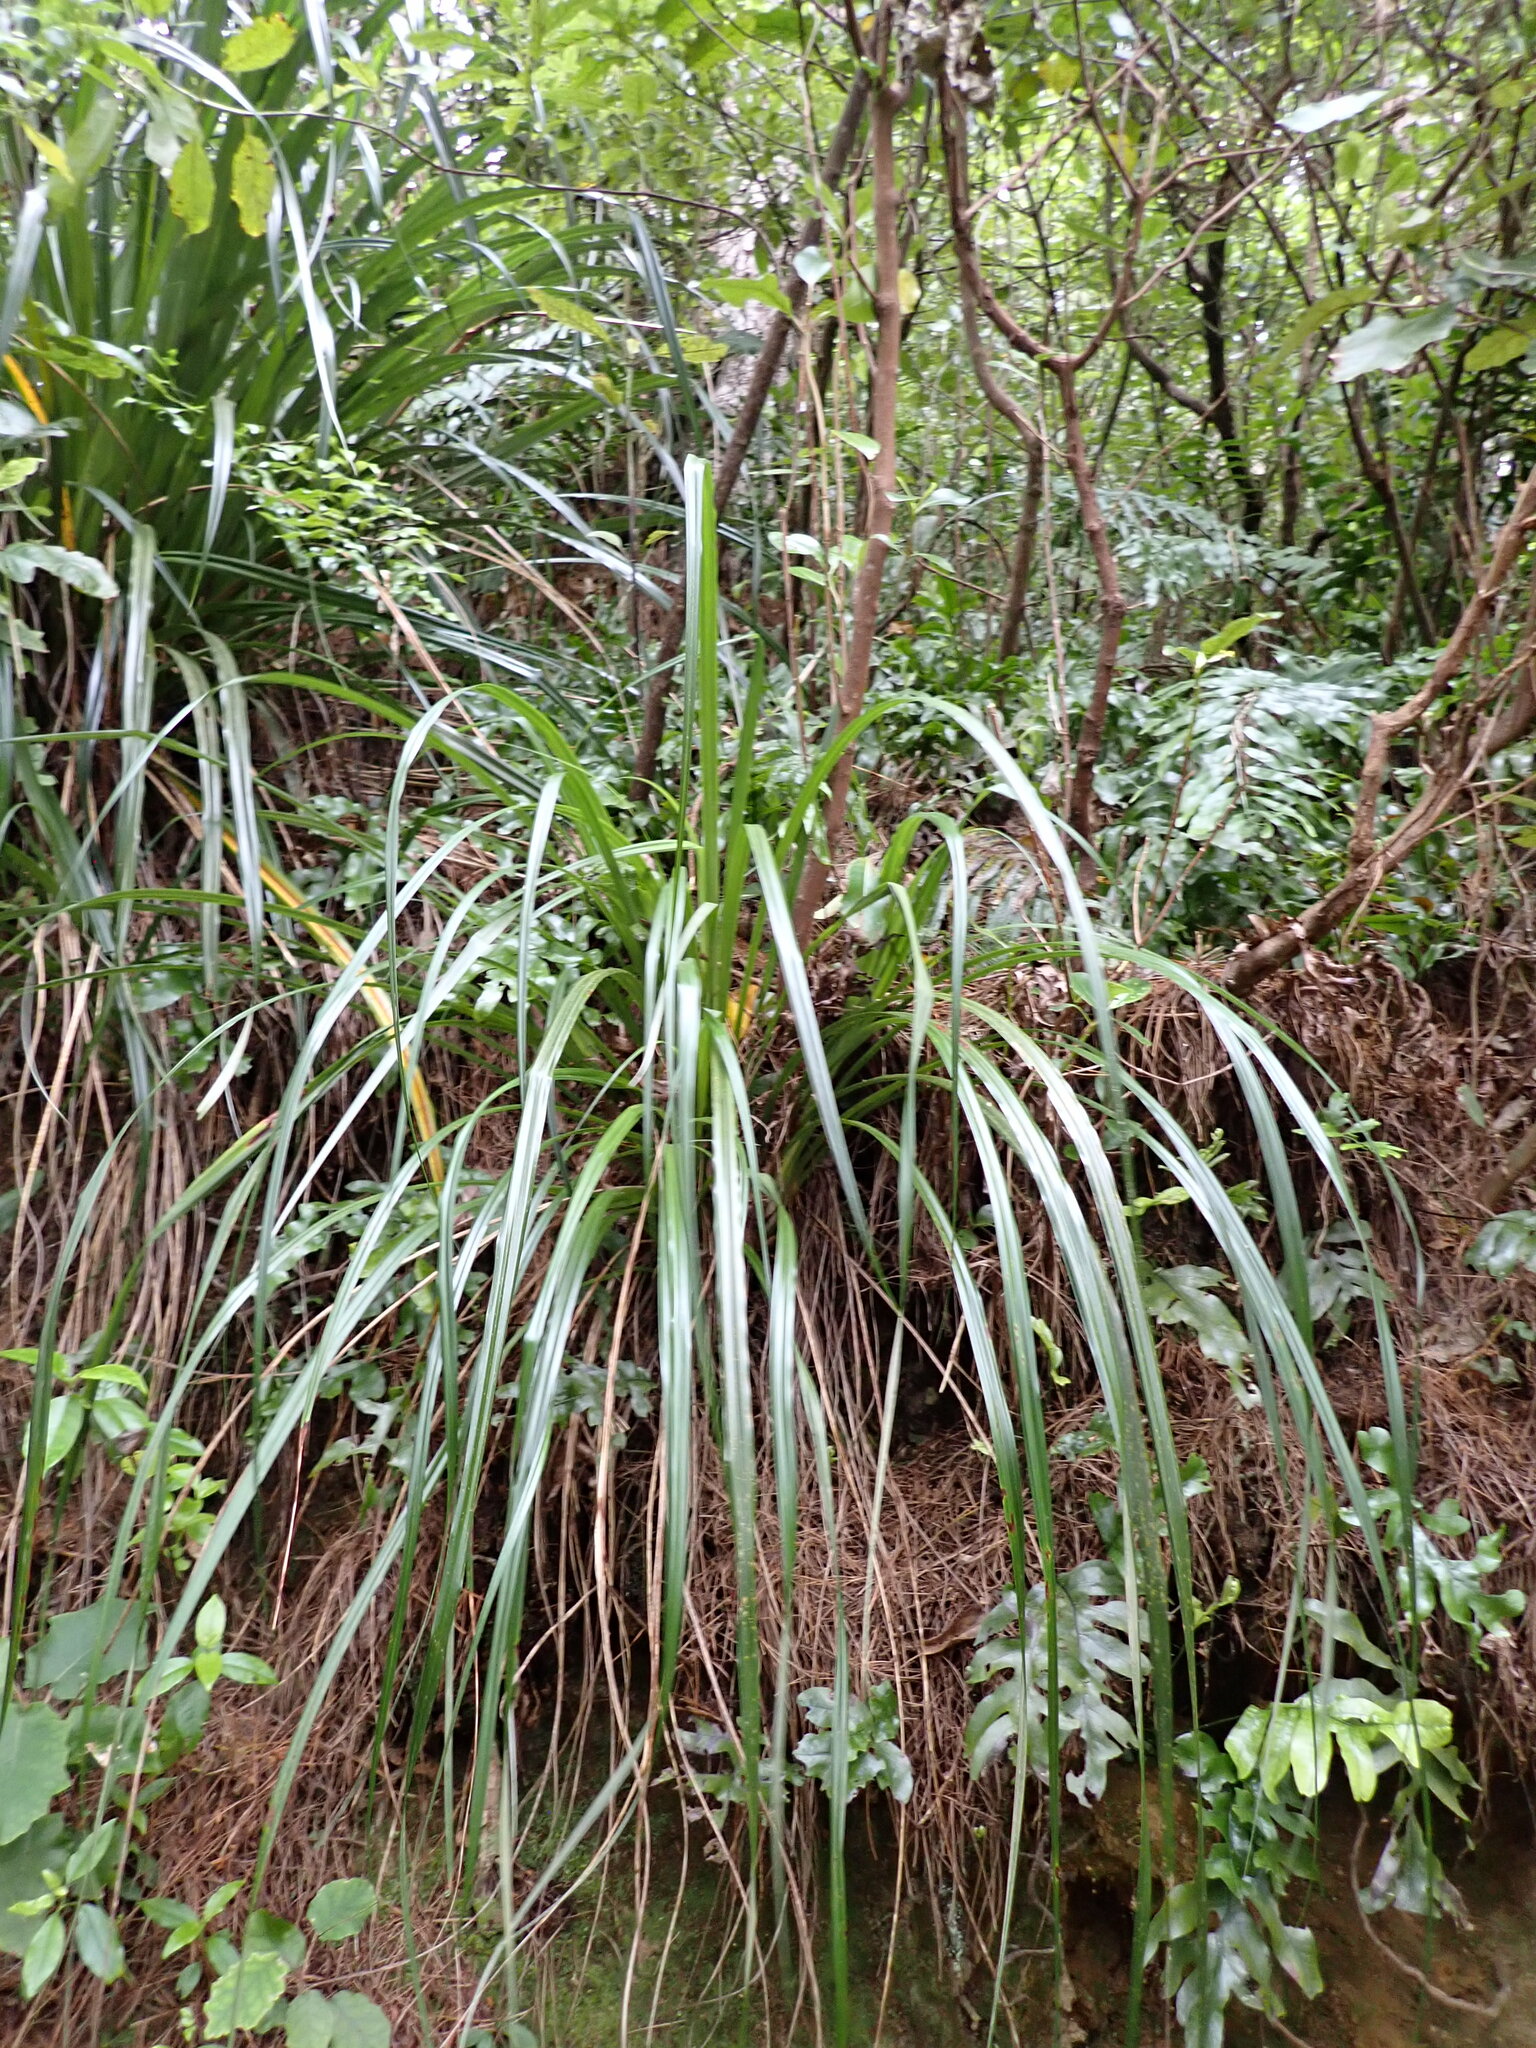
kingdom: Plantae
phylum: Tracheophyta
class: Liliopsida
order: Asparagales
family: Asteliaceae
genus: Astelia
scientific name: Astelia solandri
